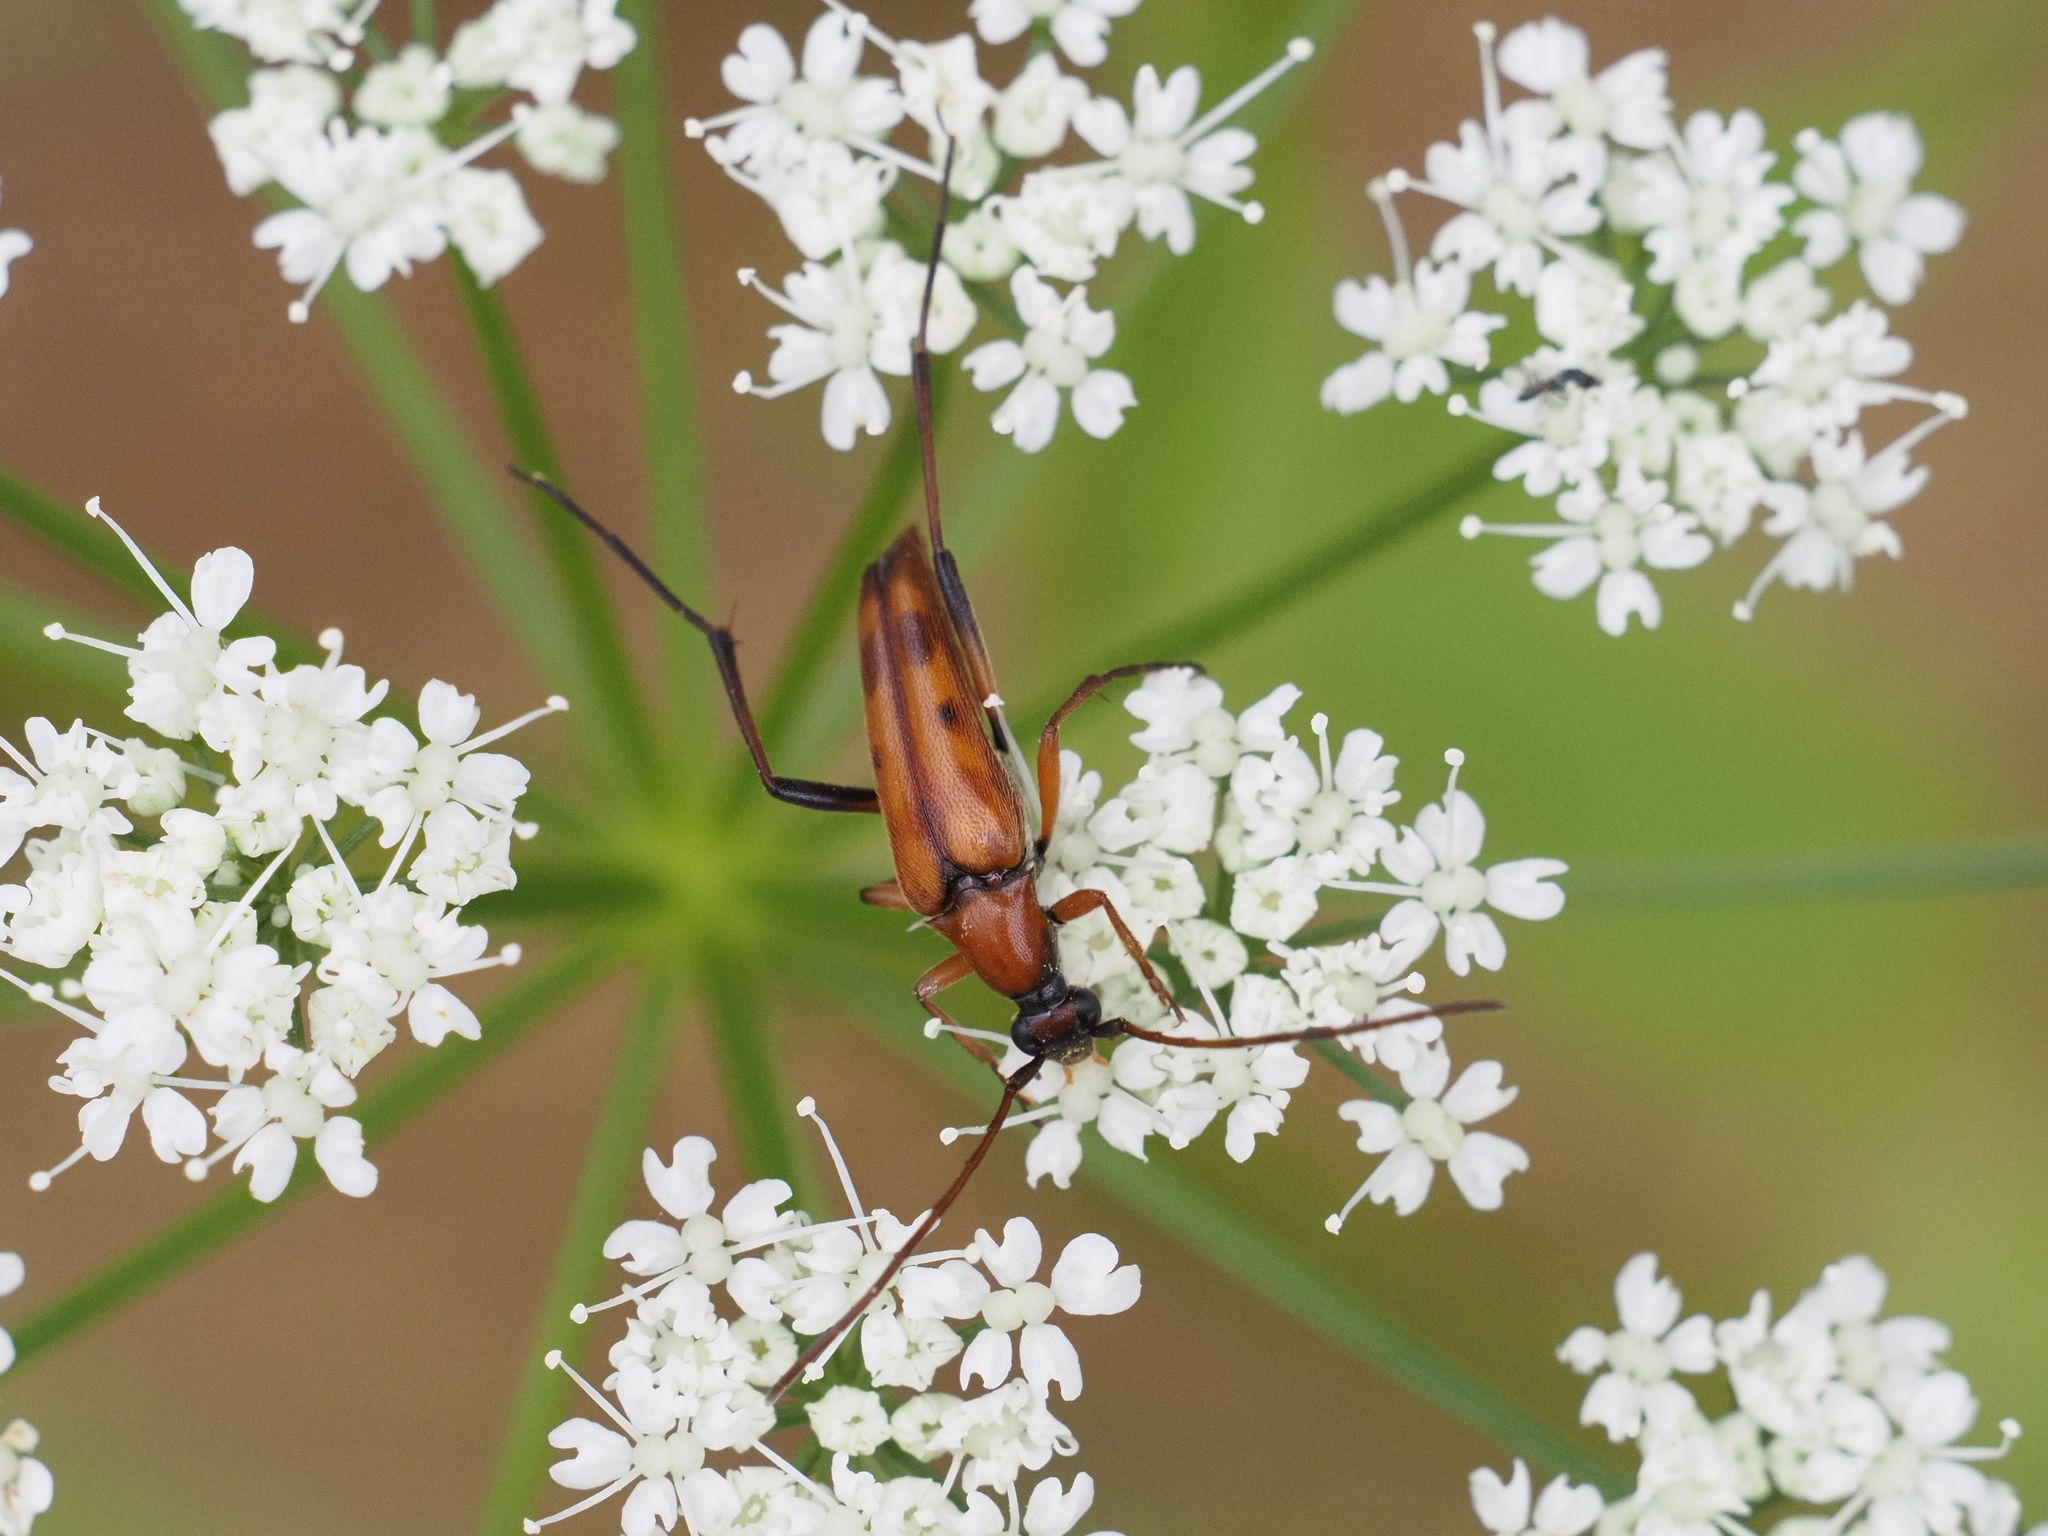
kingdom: Animalia
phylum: Arthropoda
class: Insecta
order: Coleoptera
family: Cerambycidae
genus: Stenurella
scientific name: Stenurella septempunctata
